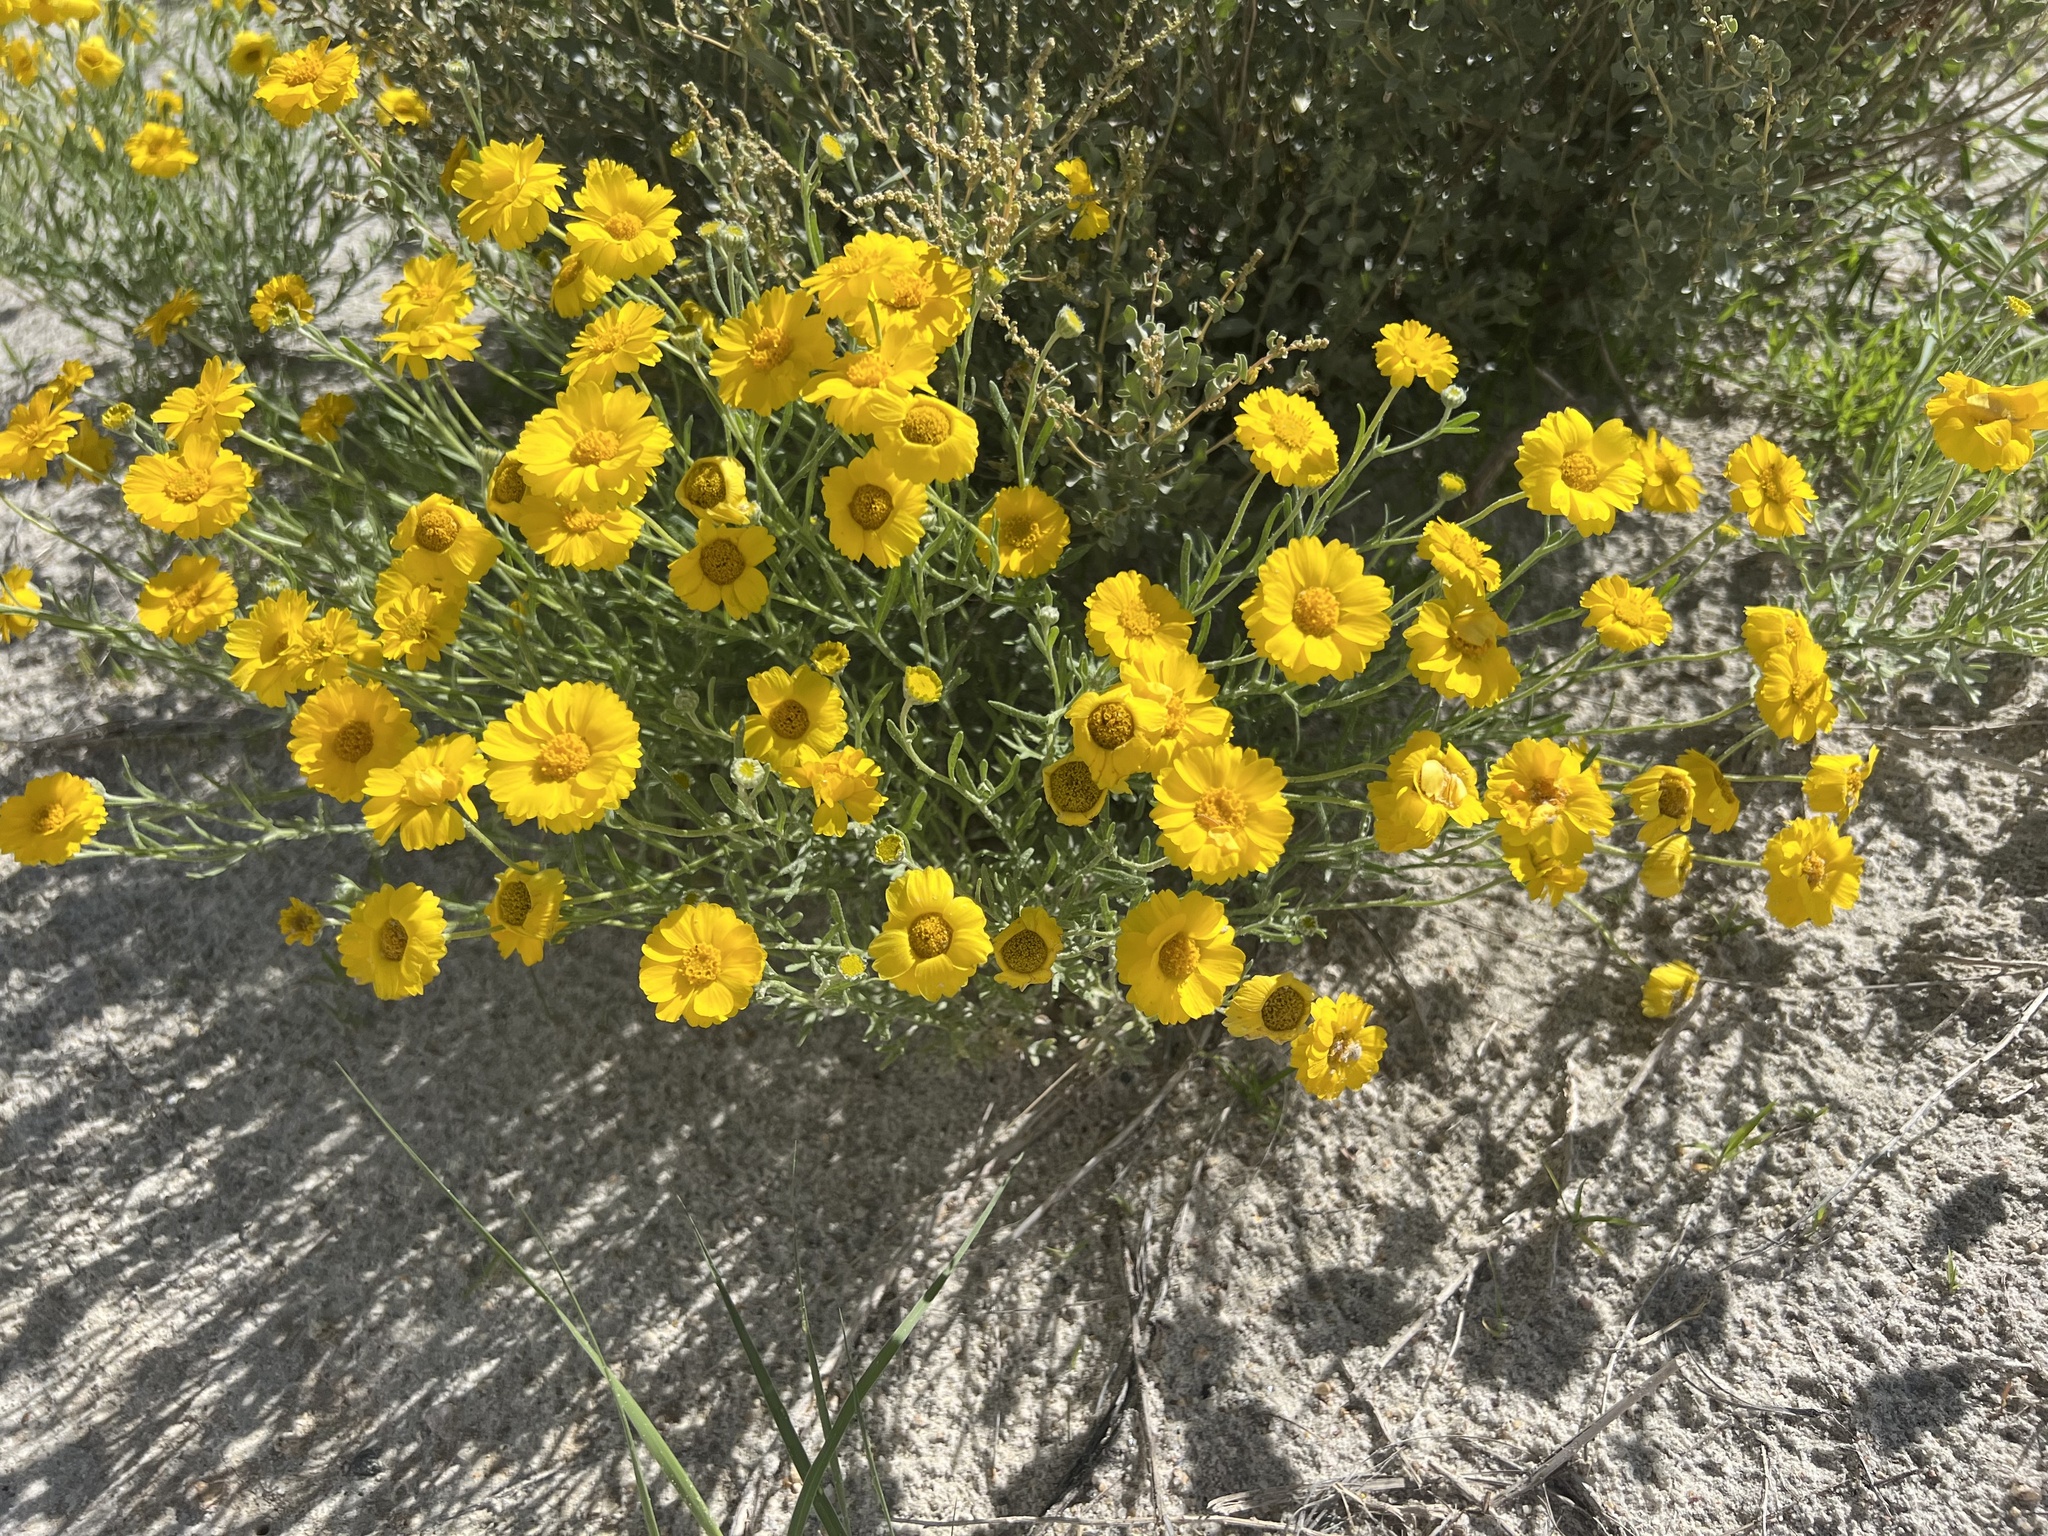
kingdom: Plantae
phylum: Tracheophyta
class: Magnoliopsida
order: Asterales
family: Asteraceae
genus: Baileya
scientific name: Baileya pleniradiata
